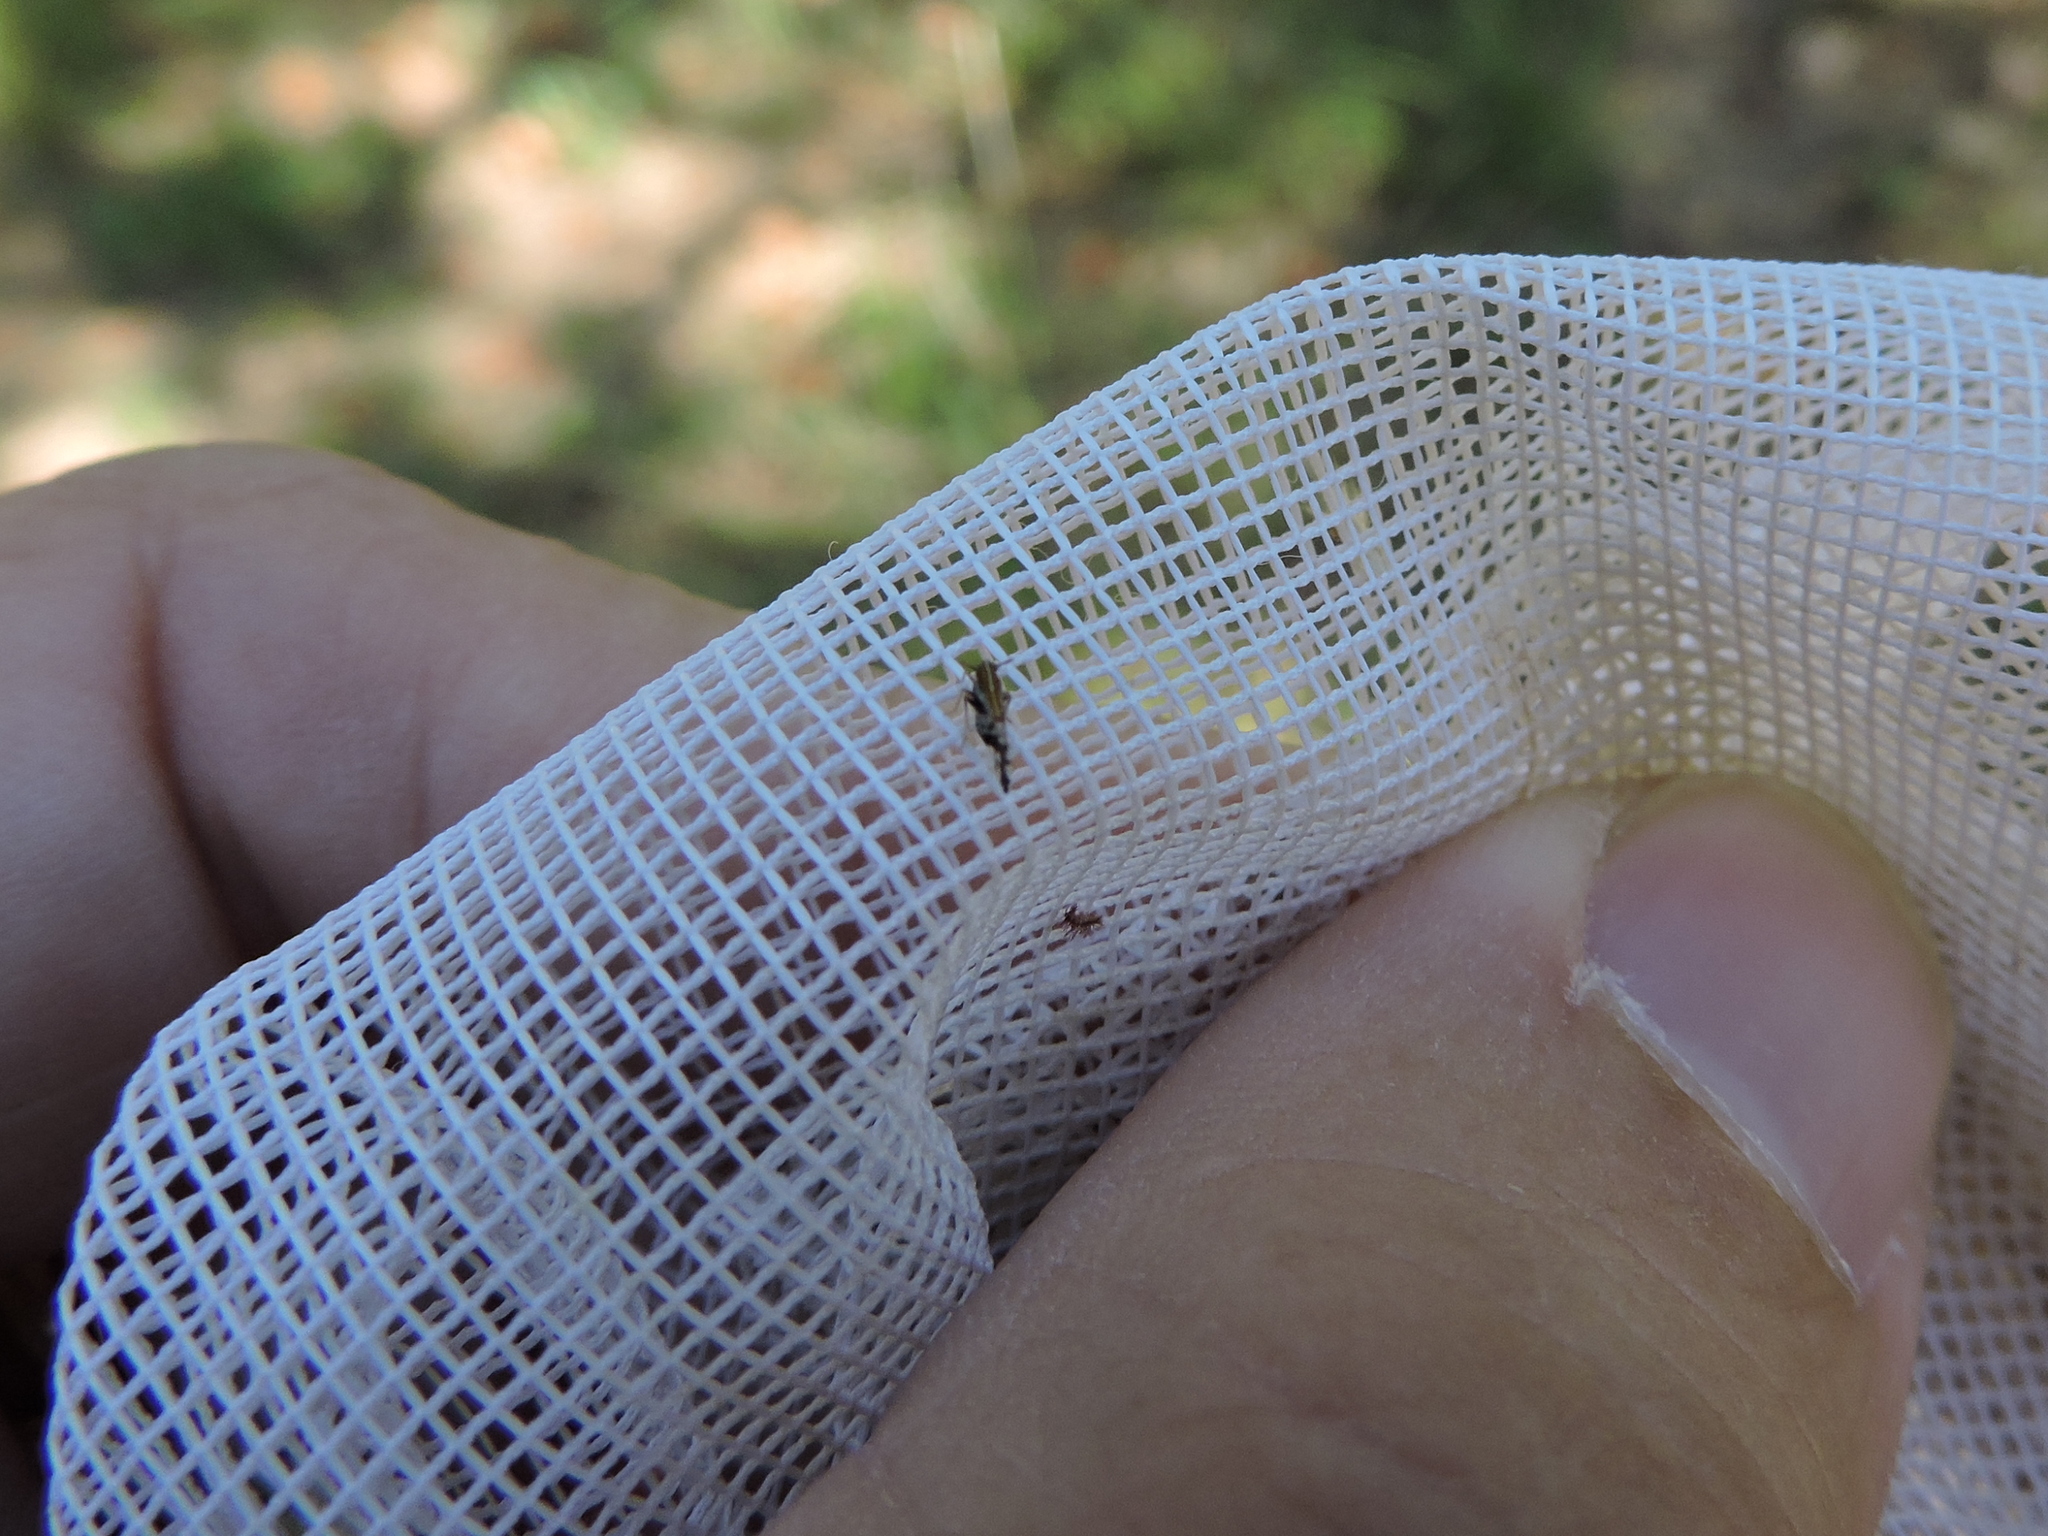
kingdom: Animalia
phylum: Arthropoda
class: Insecta
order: Hemiptera
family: Delphacidae
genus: Liburniella
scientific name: Liburniella ornata
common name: Ornate planthopper
